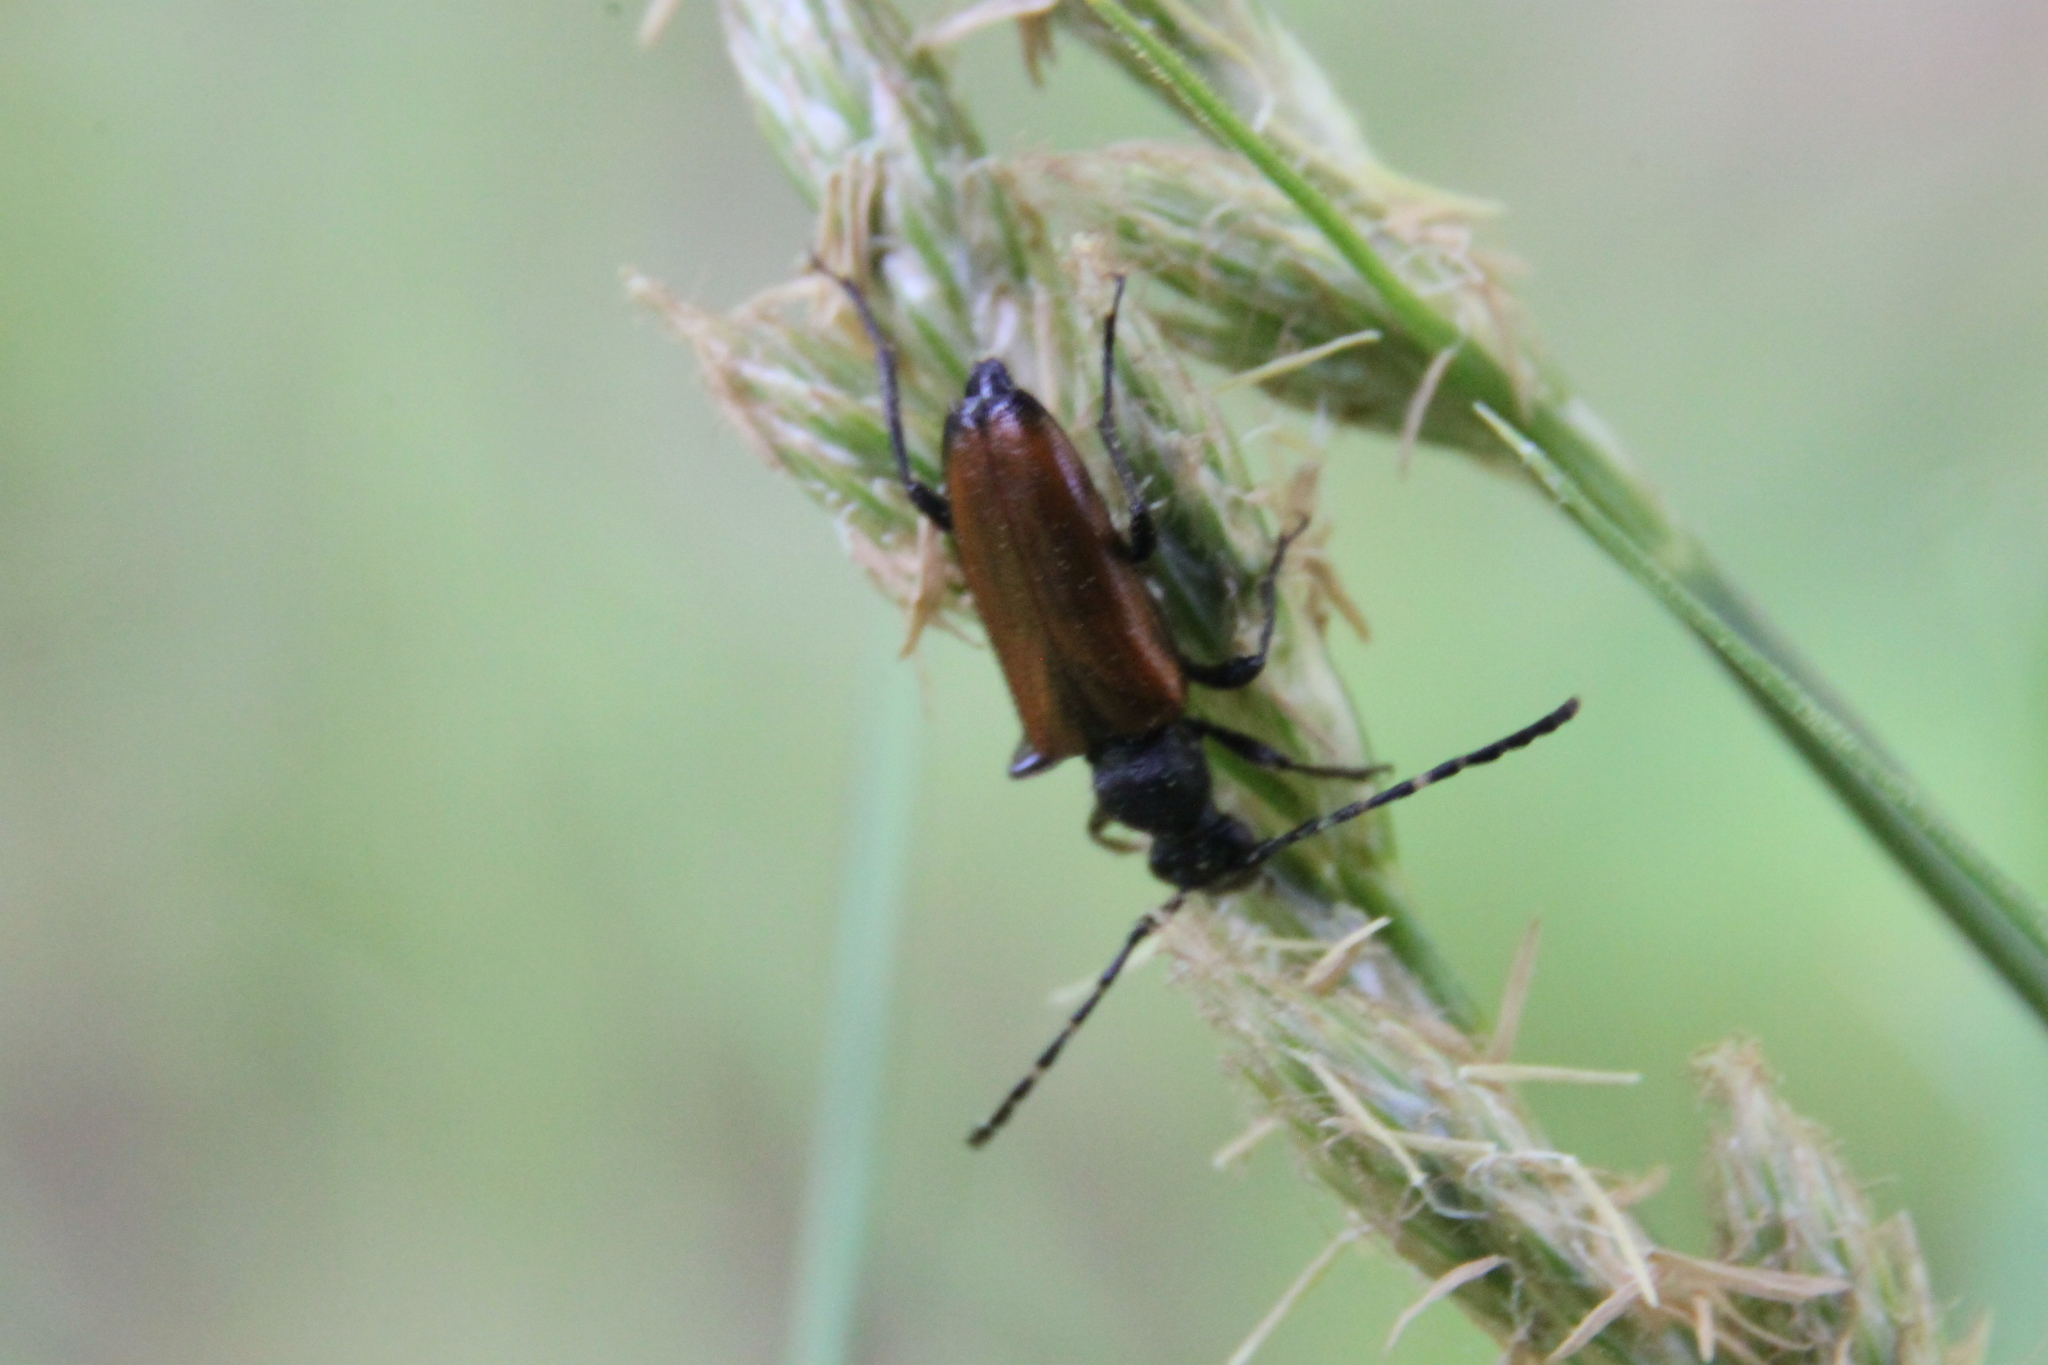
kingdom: Animalia
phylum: Arthropoda
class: Insecta
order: Coleoptera
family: Cerambycidae
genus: Paracorymbia
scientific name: Paracorymbia maculicornis
